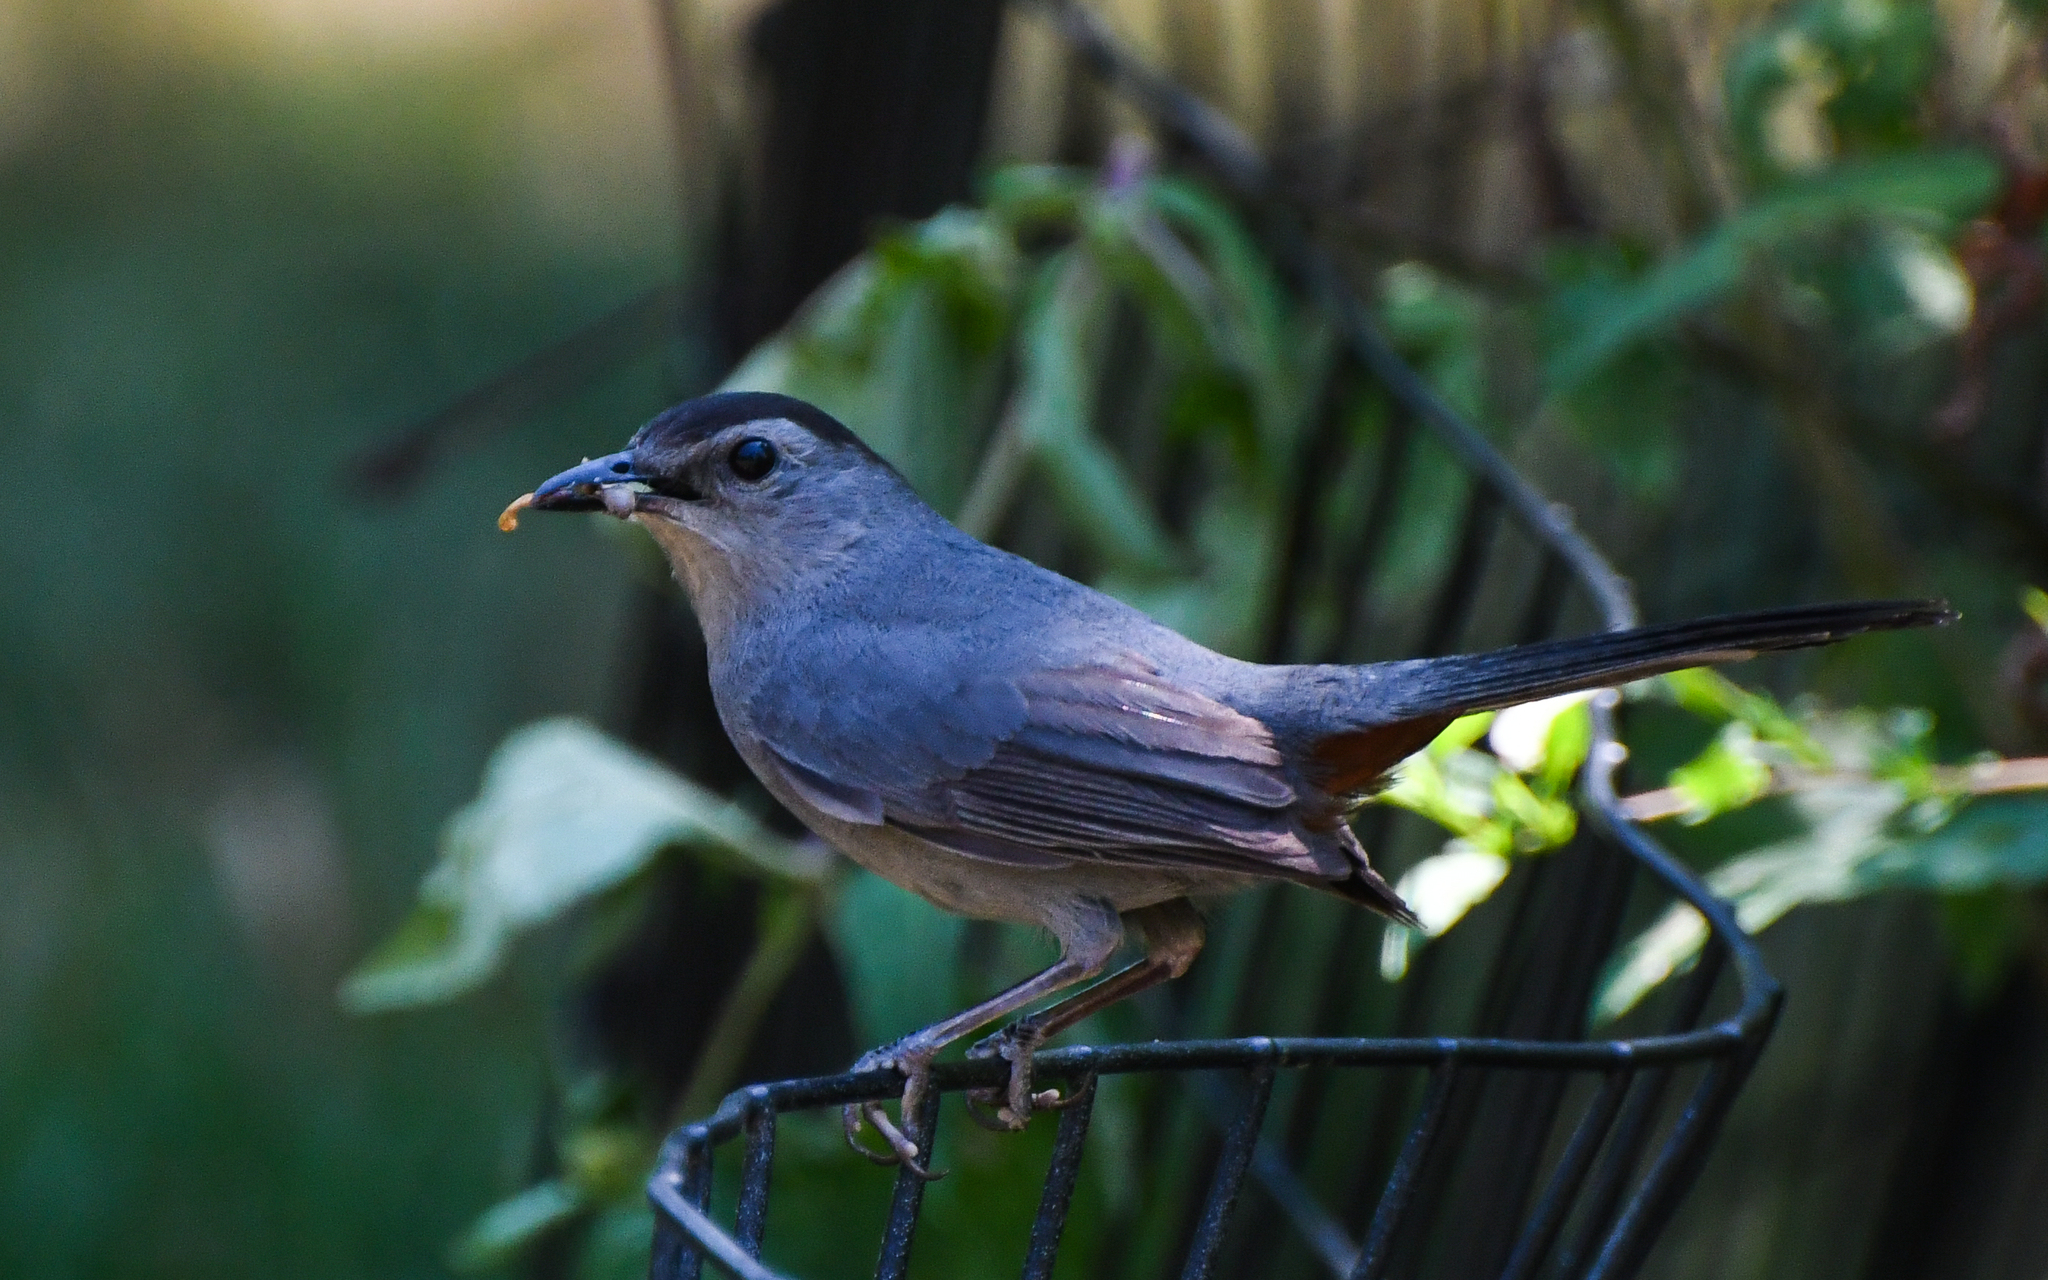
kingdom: Animalia
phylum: Chordata
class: Aves
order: Passeriformes
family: Mimidae
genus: Dumetella
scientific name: Dumetella carolinensis
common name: Gray catbird
